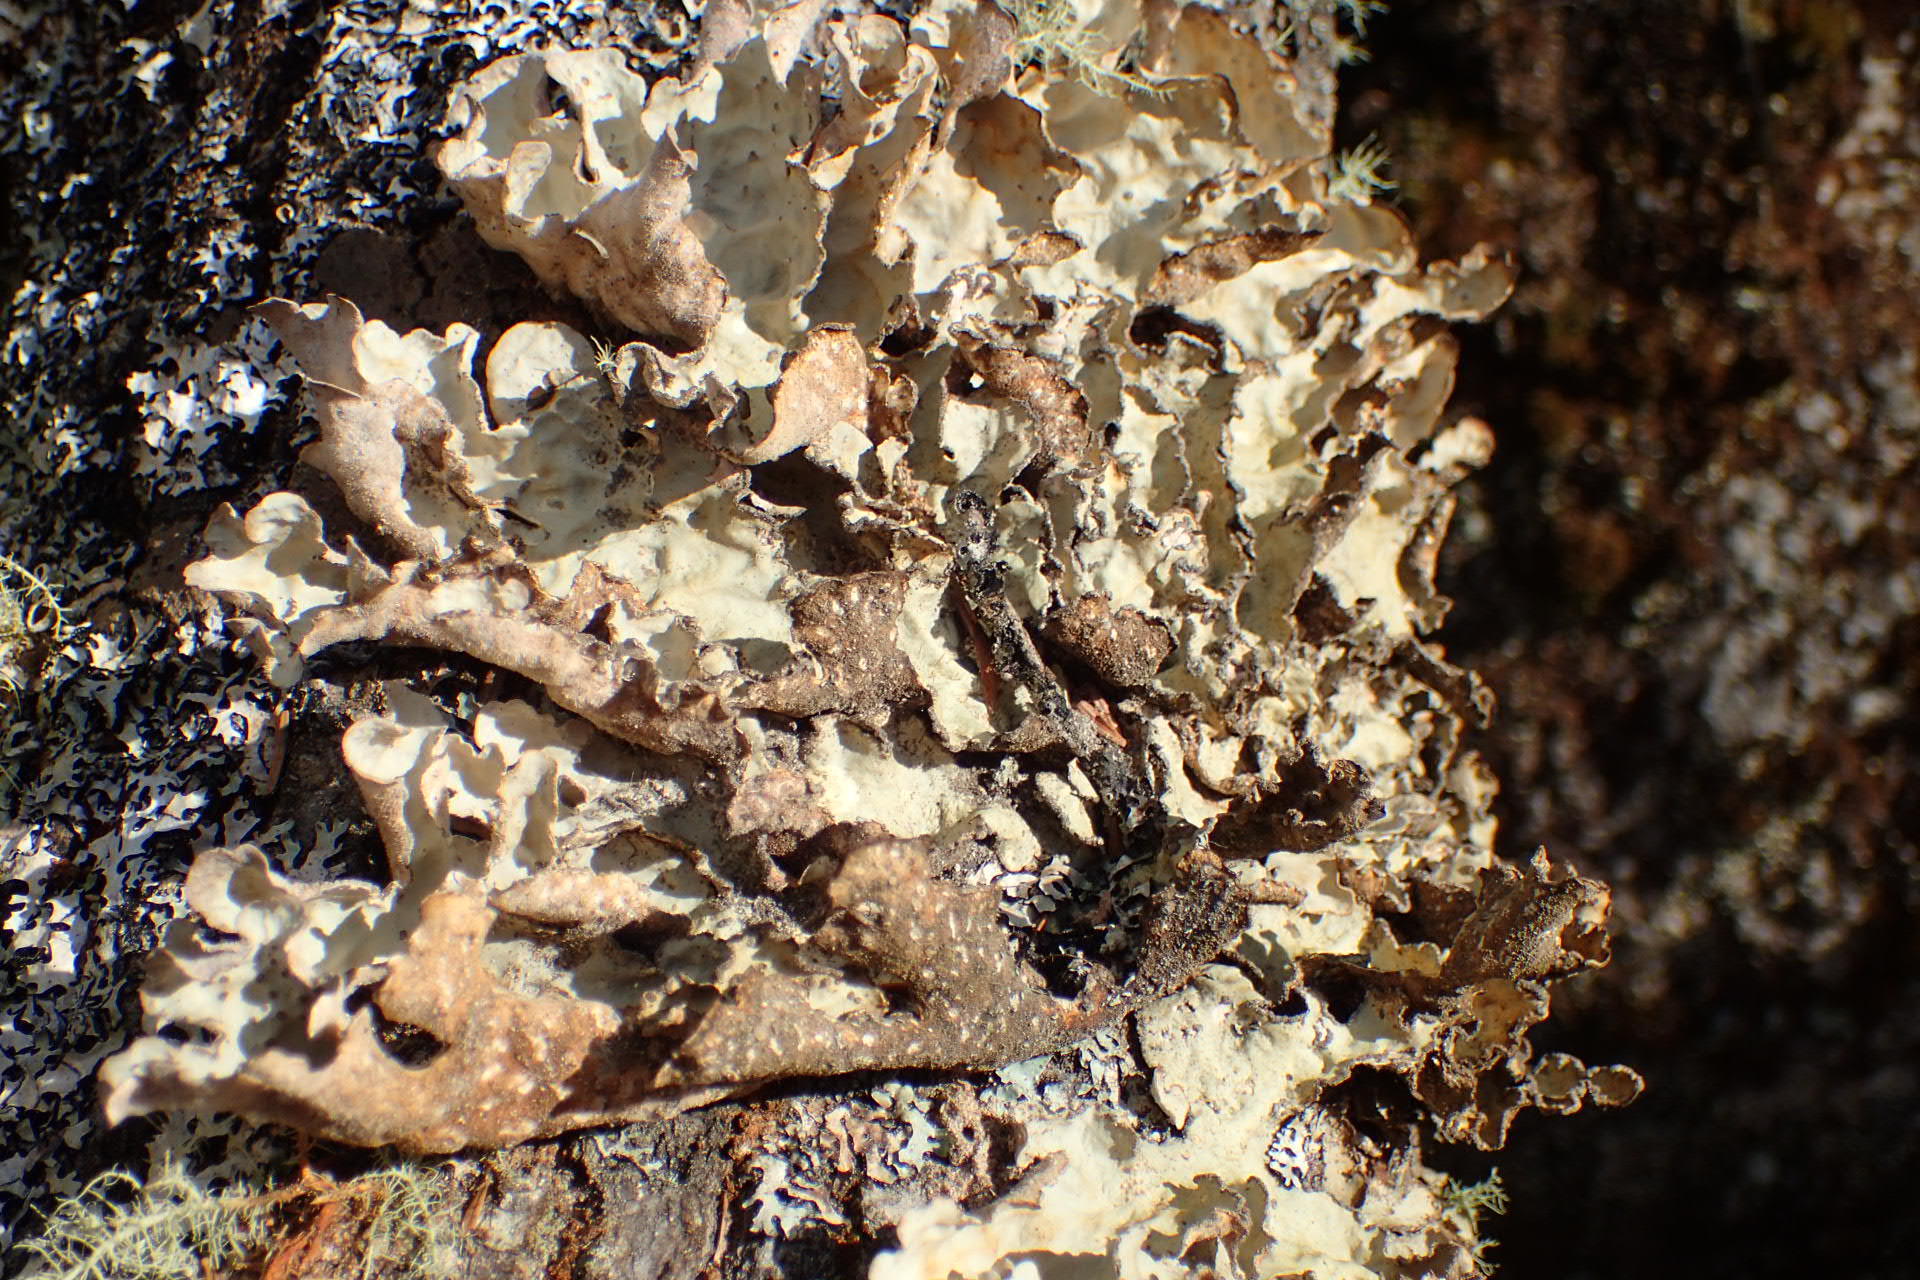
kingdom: Fungi
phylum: Ascomycota
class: Lecanoromycetes
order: Peltigerales
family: Lobariaceae
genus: Lobarina
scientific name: Lobarina scrobiculata
